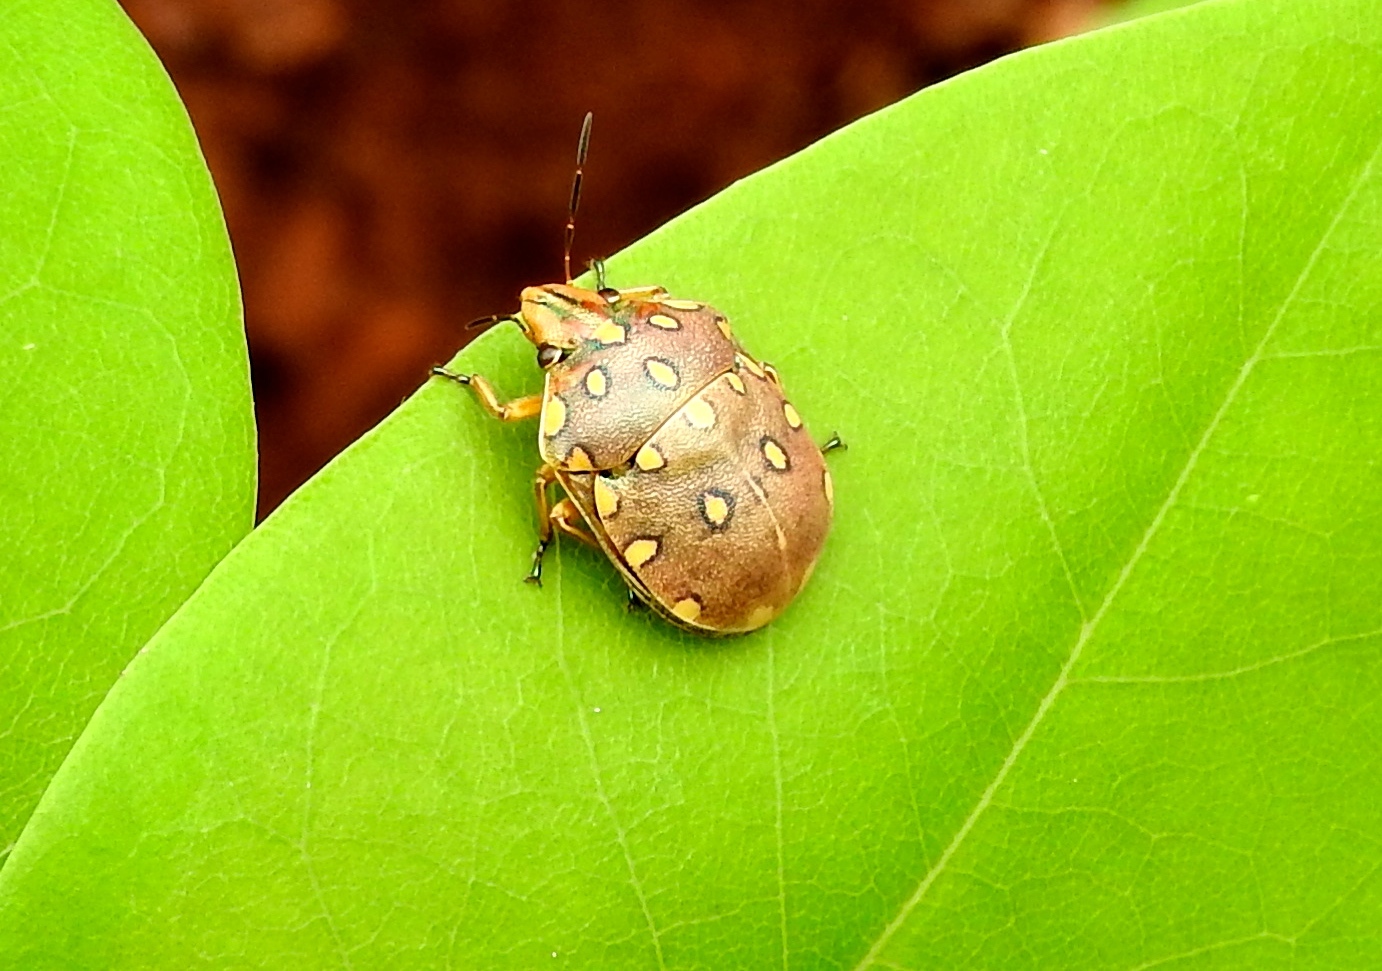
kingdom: Animalia
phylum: Arthropoda
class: Insecta
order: Hemiptera
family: Scutelleridae
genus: Pachycoris
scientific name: Pachycoris torridus
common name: Torrid jewel bug
